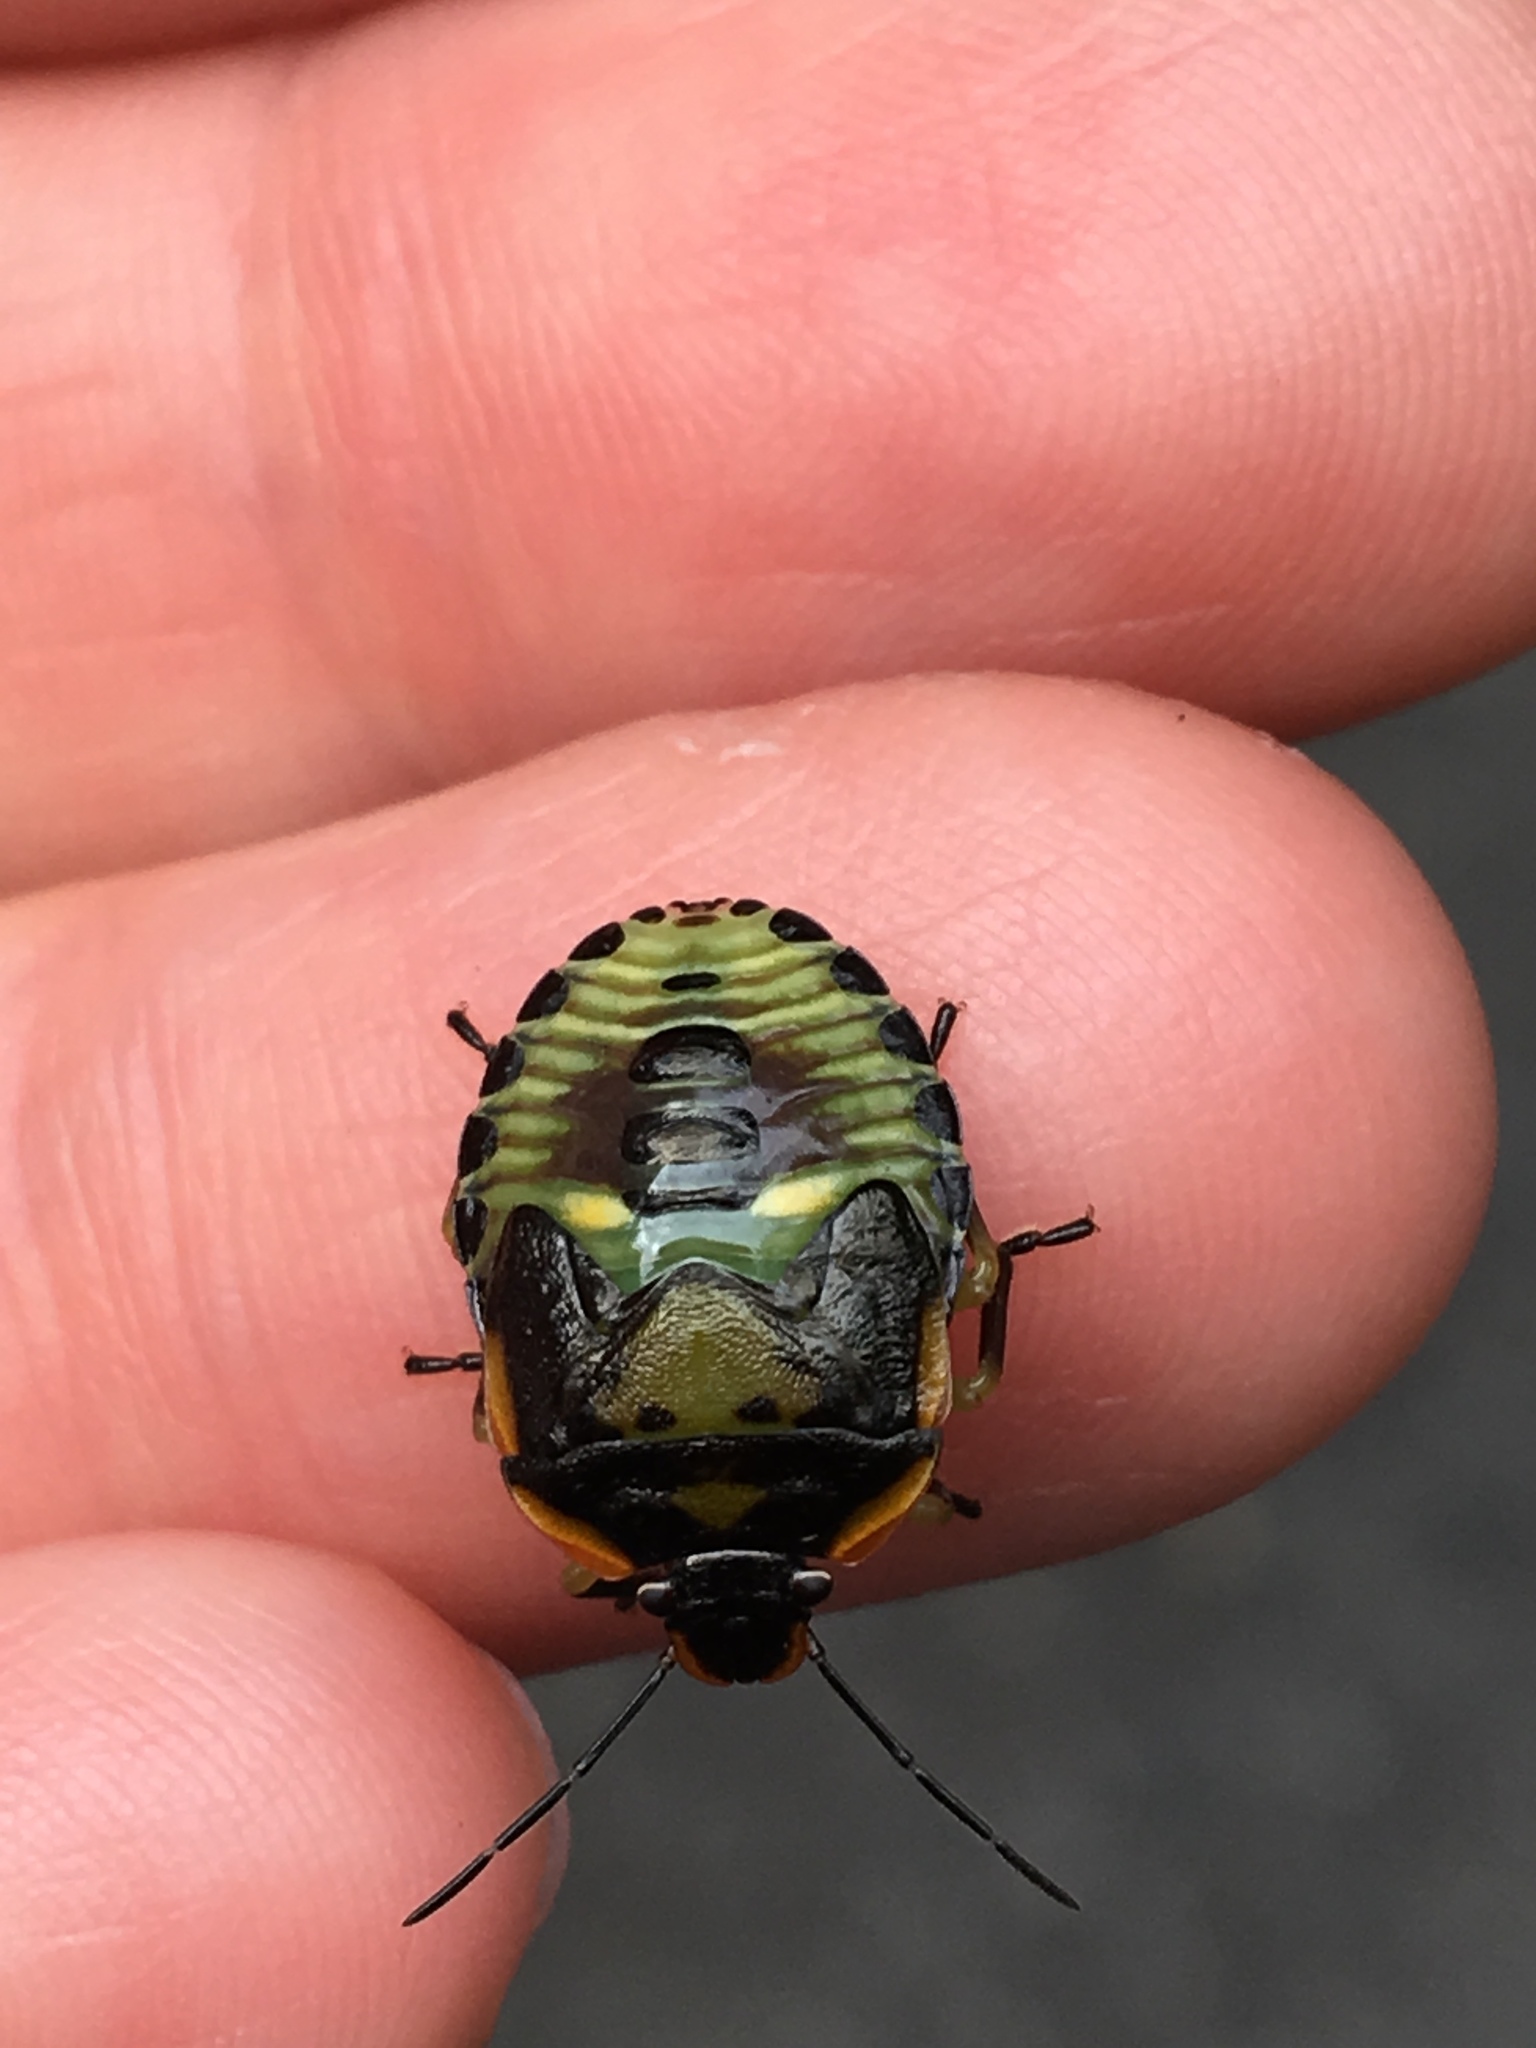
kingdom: Animalia
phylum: Arthropoda
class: Insecta
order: Hemiptera
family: Pentatomidae
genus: Chinavia
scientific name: Chinavia hilaris
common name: Green stink bug
